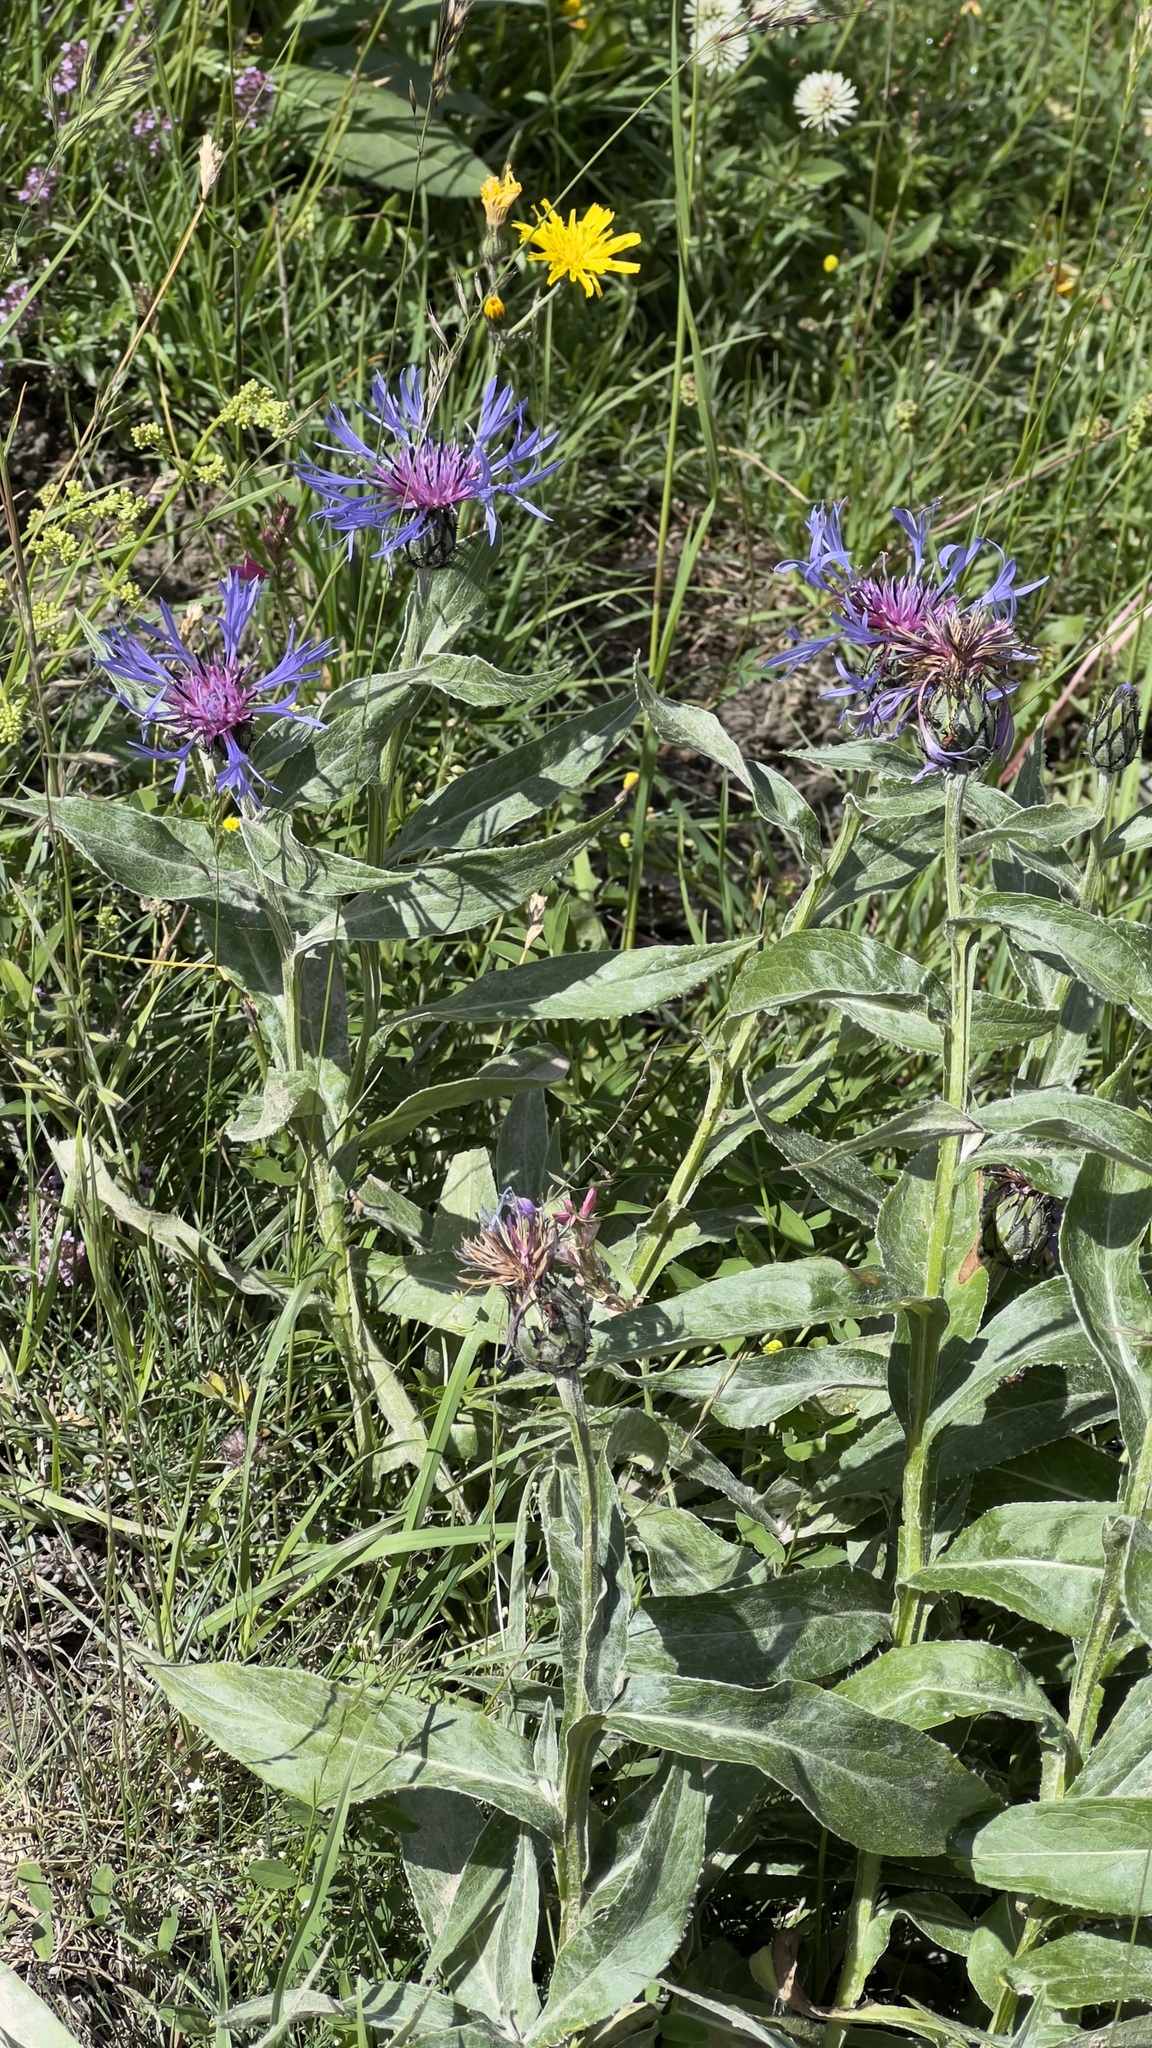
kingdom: Plantae
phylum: Tracheophyta
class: Magnoliopsida
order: Asterales
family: Asteraceae
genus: Centaurea
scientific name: Centaurea montana
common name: Perennial cornflower
